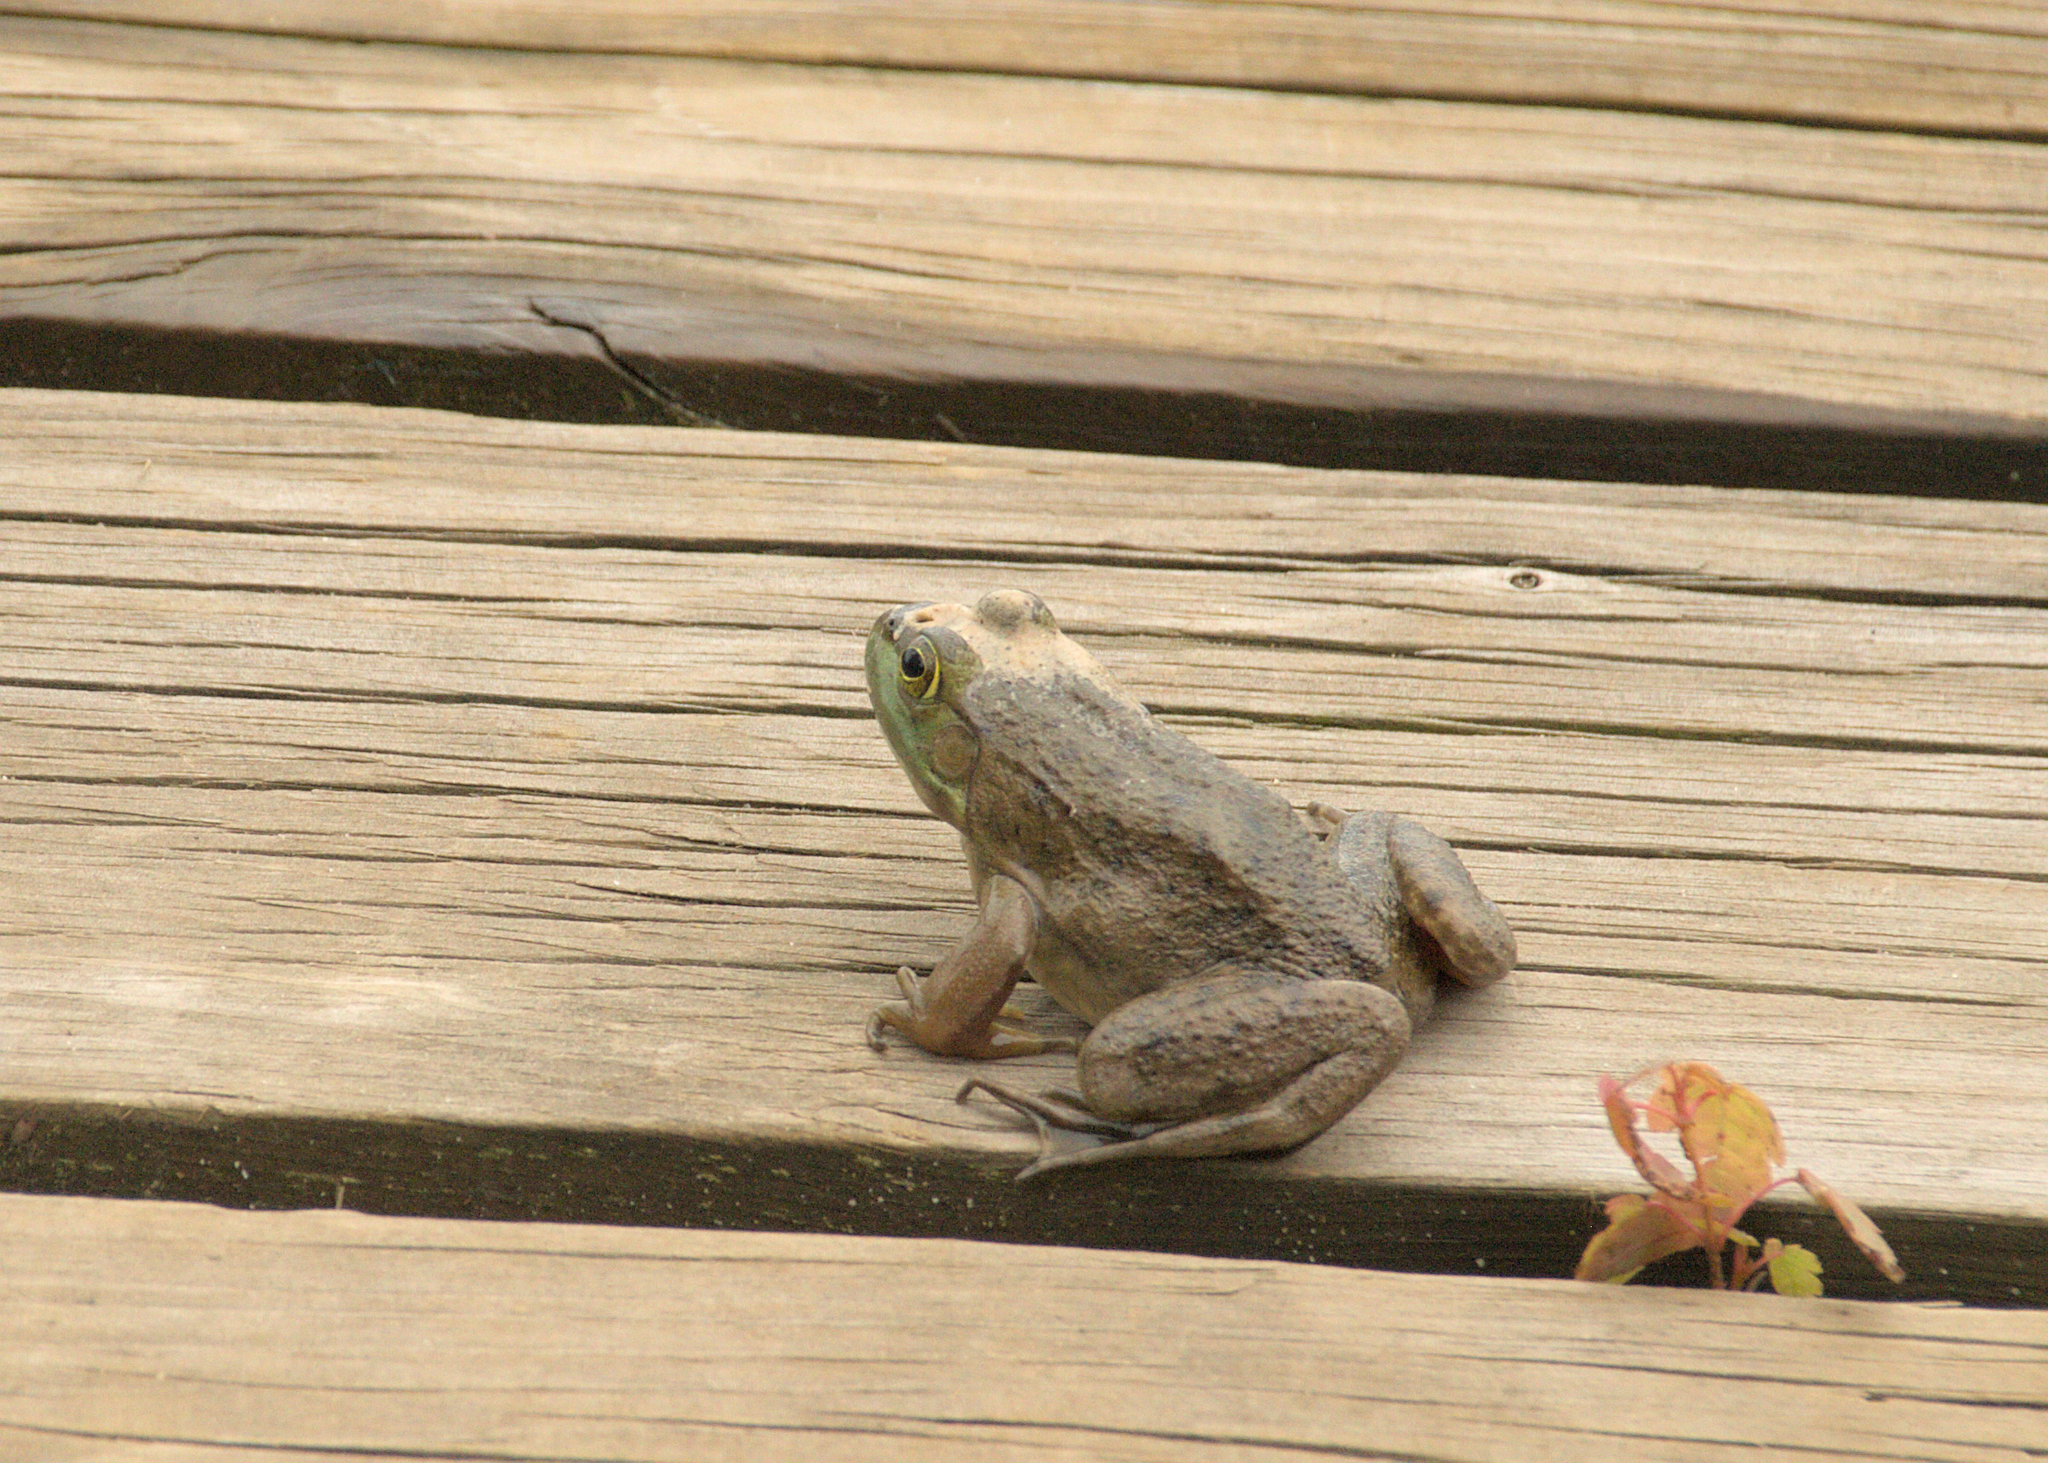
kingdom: Animalia
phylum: Chordata
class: Amphibia
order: Anura
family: Ranidae
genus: Lithobates
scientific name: Lithobates catesbeianus
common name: American bullfrog
